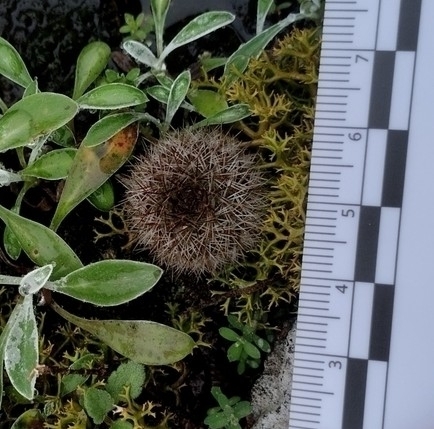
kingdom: Plantae
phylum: Tracheophyta
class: Magnoliopsida
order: Caryophyllales
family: Cactaceae
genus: Parodia
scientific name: Parodia scopa
